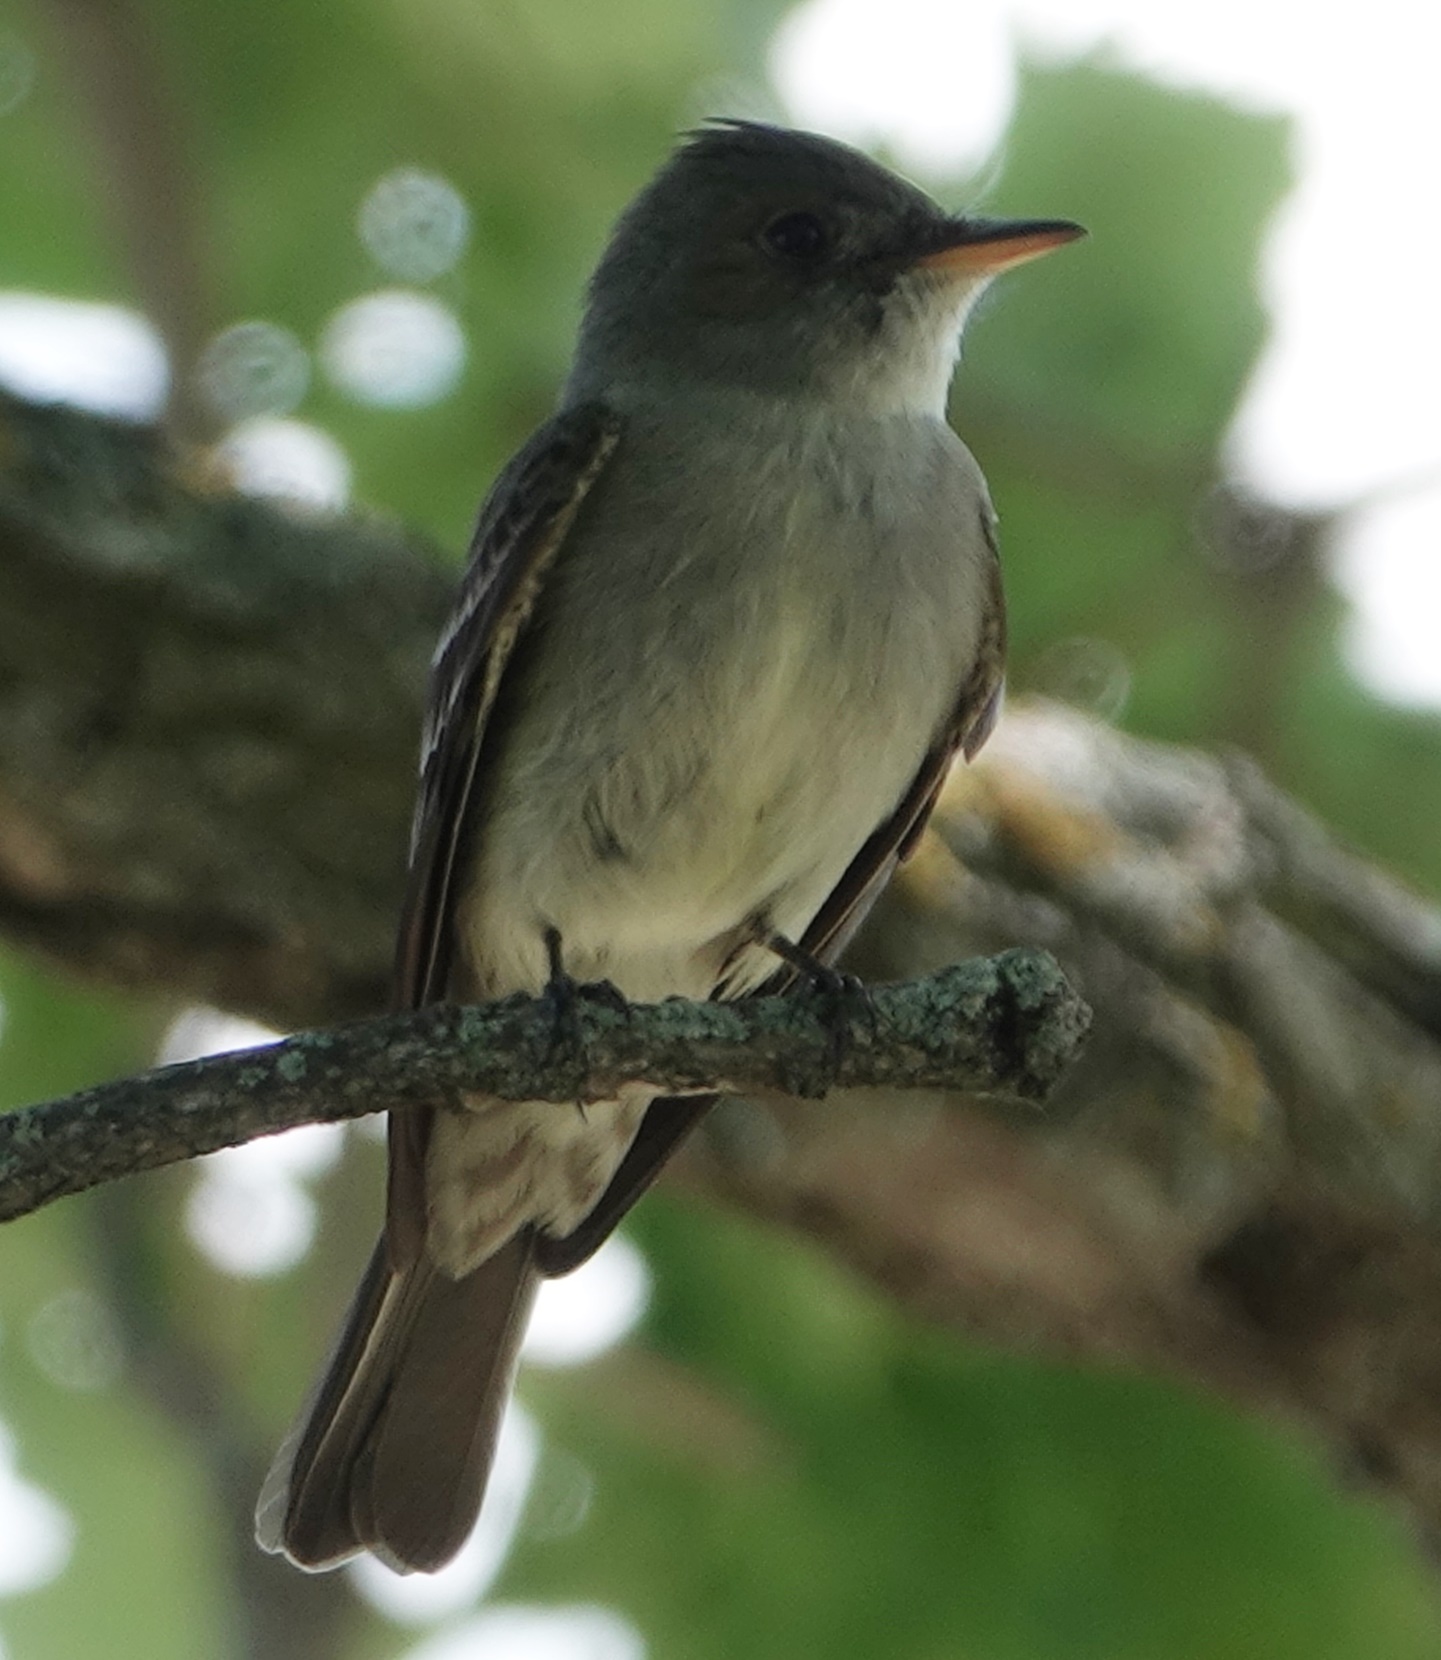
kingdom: Animalia
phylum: Chordata
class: Aves
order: Passeriformes
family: Tyrannidae
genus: Contopus
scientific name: Contopus virens
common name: Eastern wood-pewee
